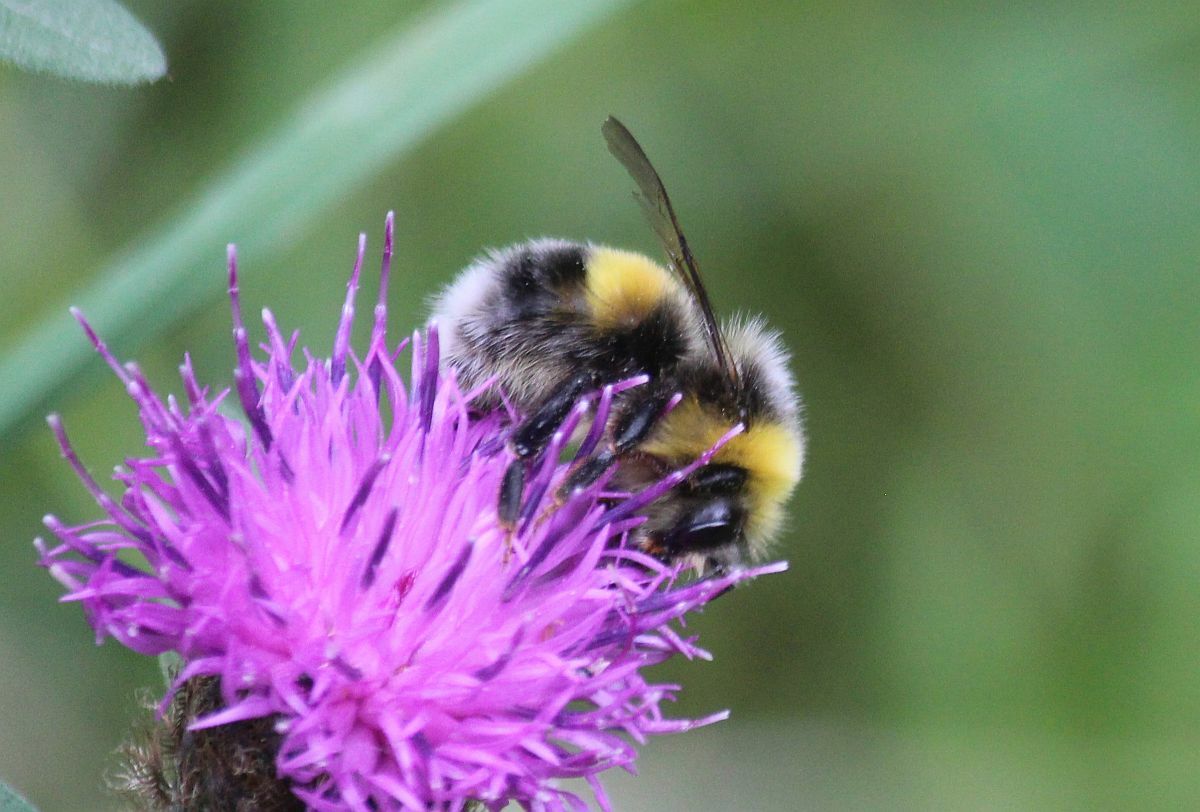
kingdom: Animalia
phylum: Arthropoda
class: Insecta
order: Hymenoptera
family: Apidae
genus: Bombus
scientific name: Bombus lucorum
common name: White-tailed bumblebee
